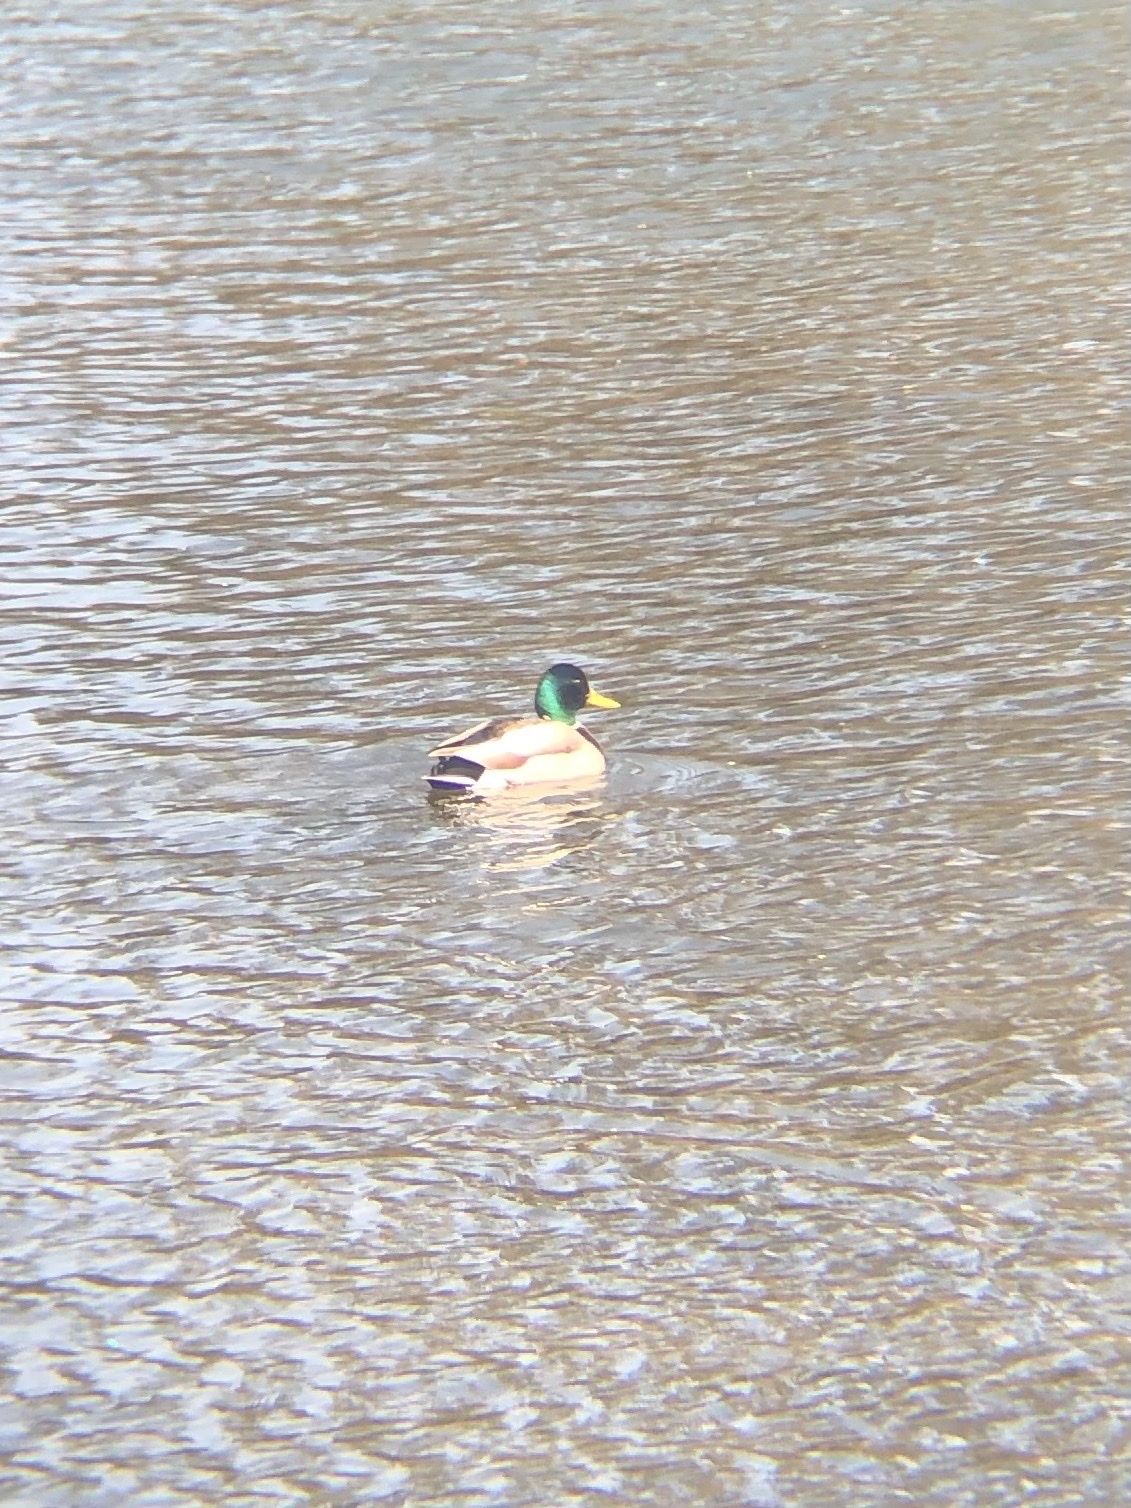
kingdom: Animalia
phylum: Chordata
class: Aves
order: Anseriformes
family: Anatidae
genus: Anas
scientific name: Anas platyrhynchos
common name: Mallard
